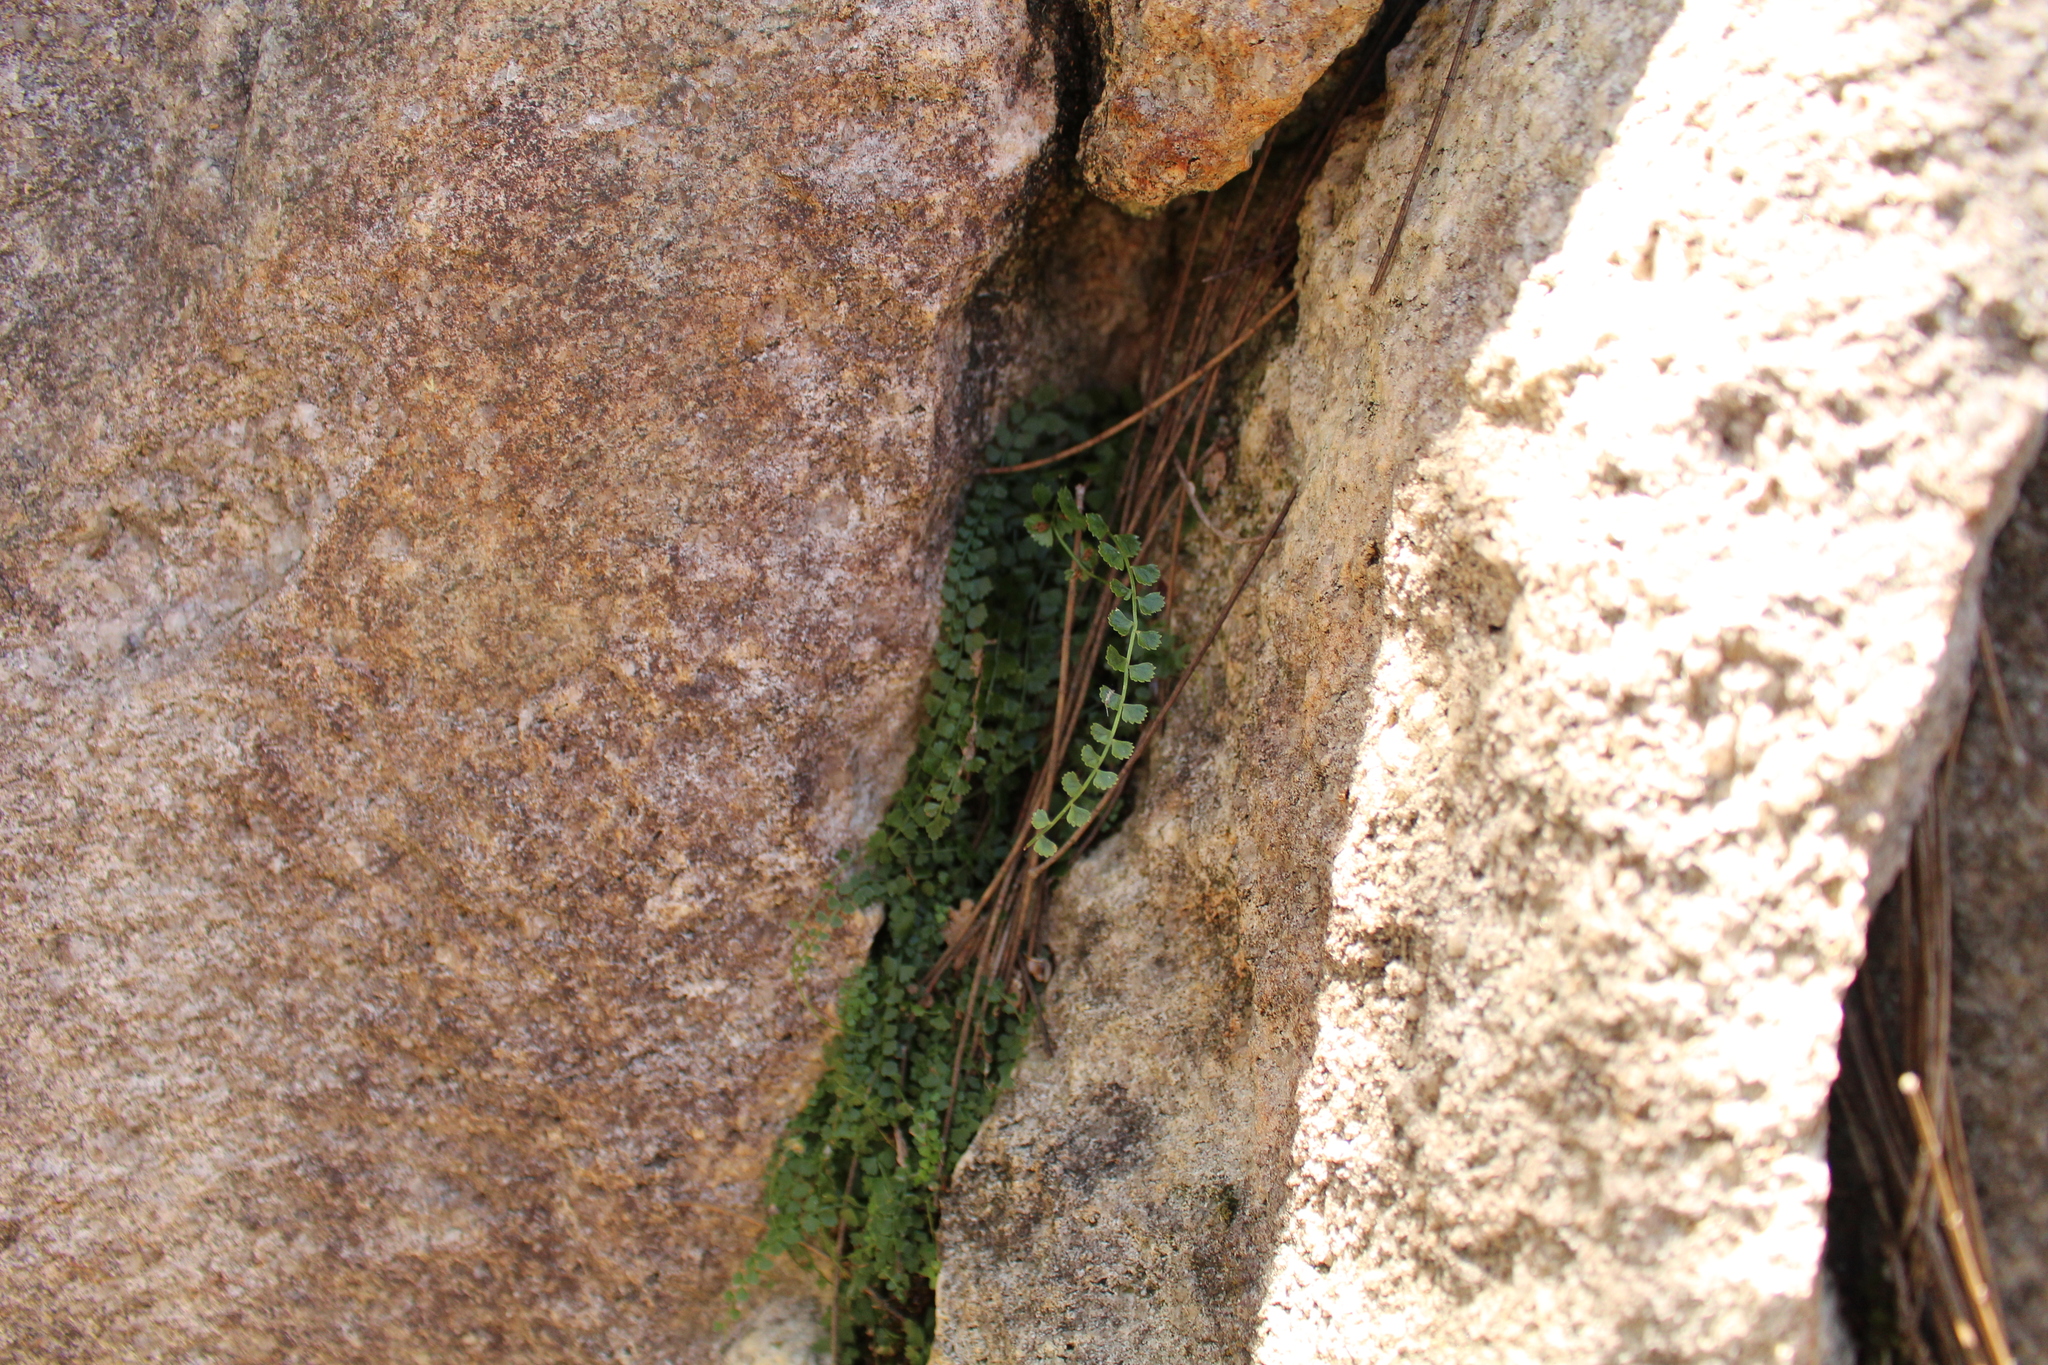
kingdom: Plantae
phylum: Tracheophyta
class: Polypodiopsida
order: Polypodiales
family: Aspleniaceae
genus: Asplenium
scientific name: Asplenium flabellifolium
